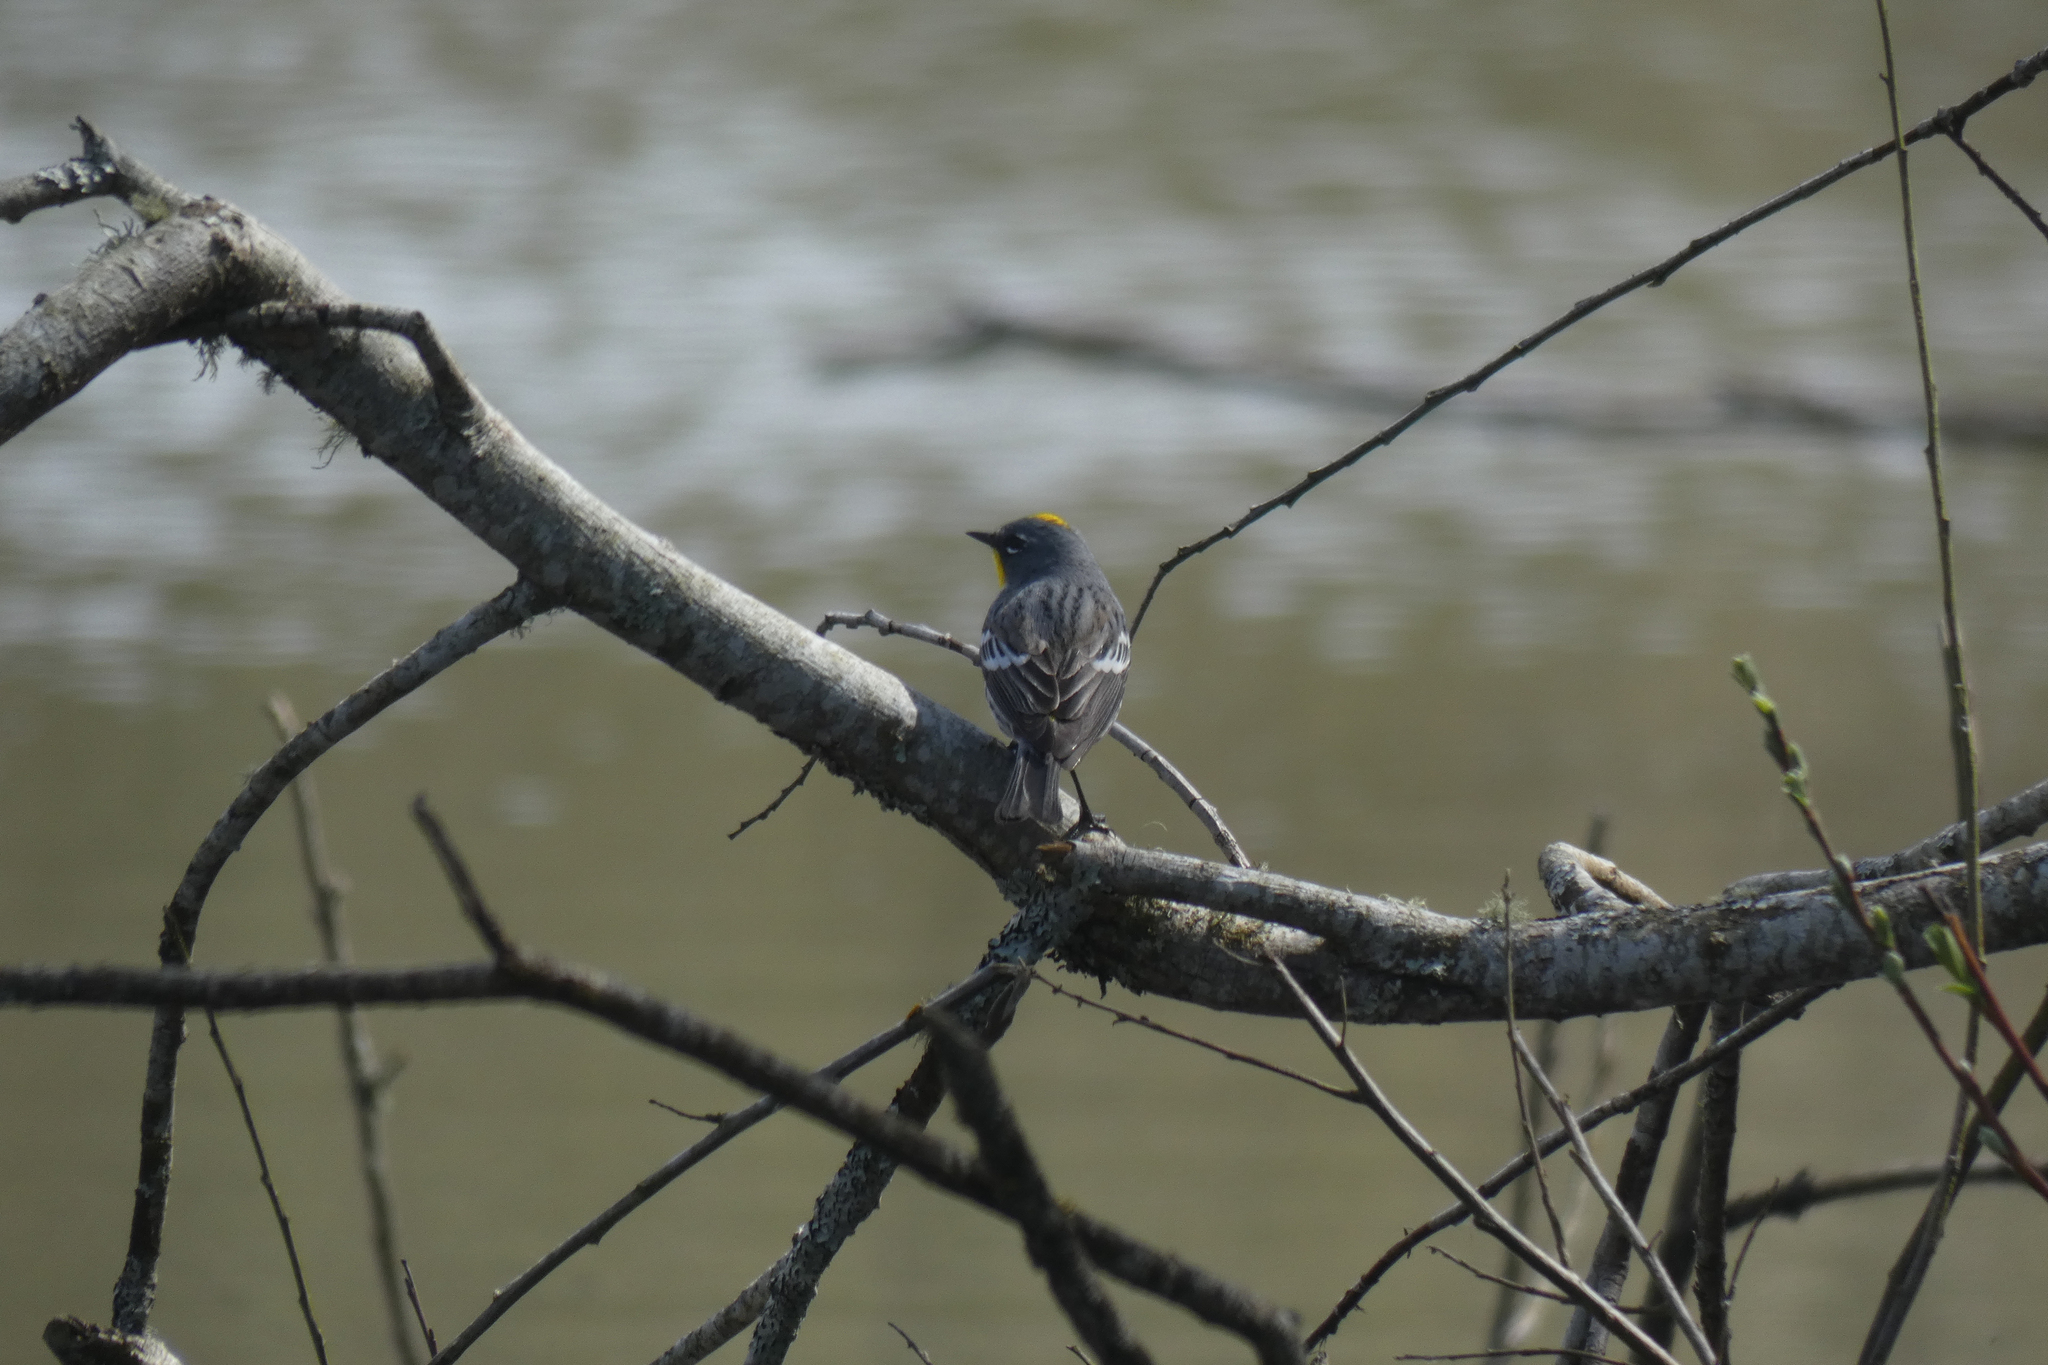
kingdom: Animalia
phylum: Chordata
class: Aves
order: Passeriformes
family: Parulidae
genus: Setophaga
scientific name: Setophaga coronata
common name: Myrtle warbler
